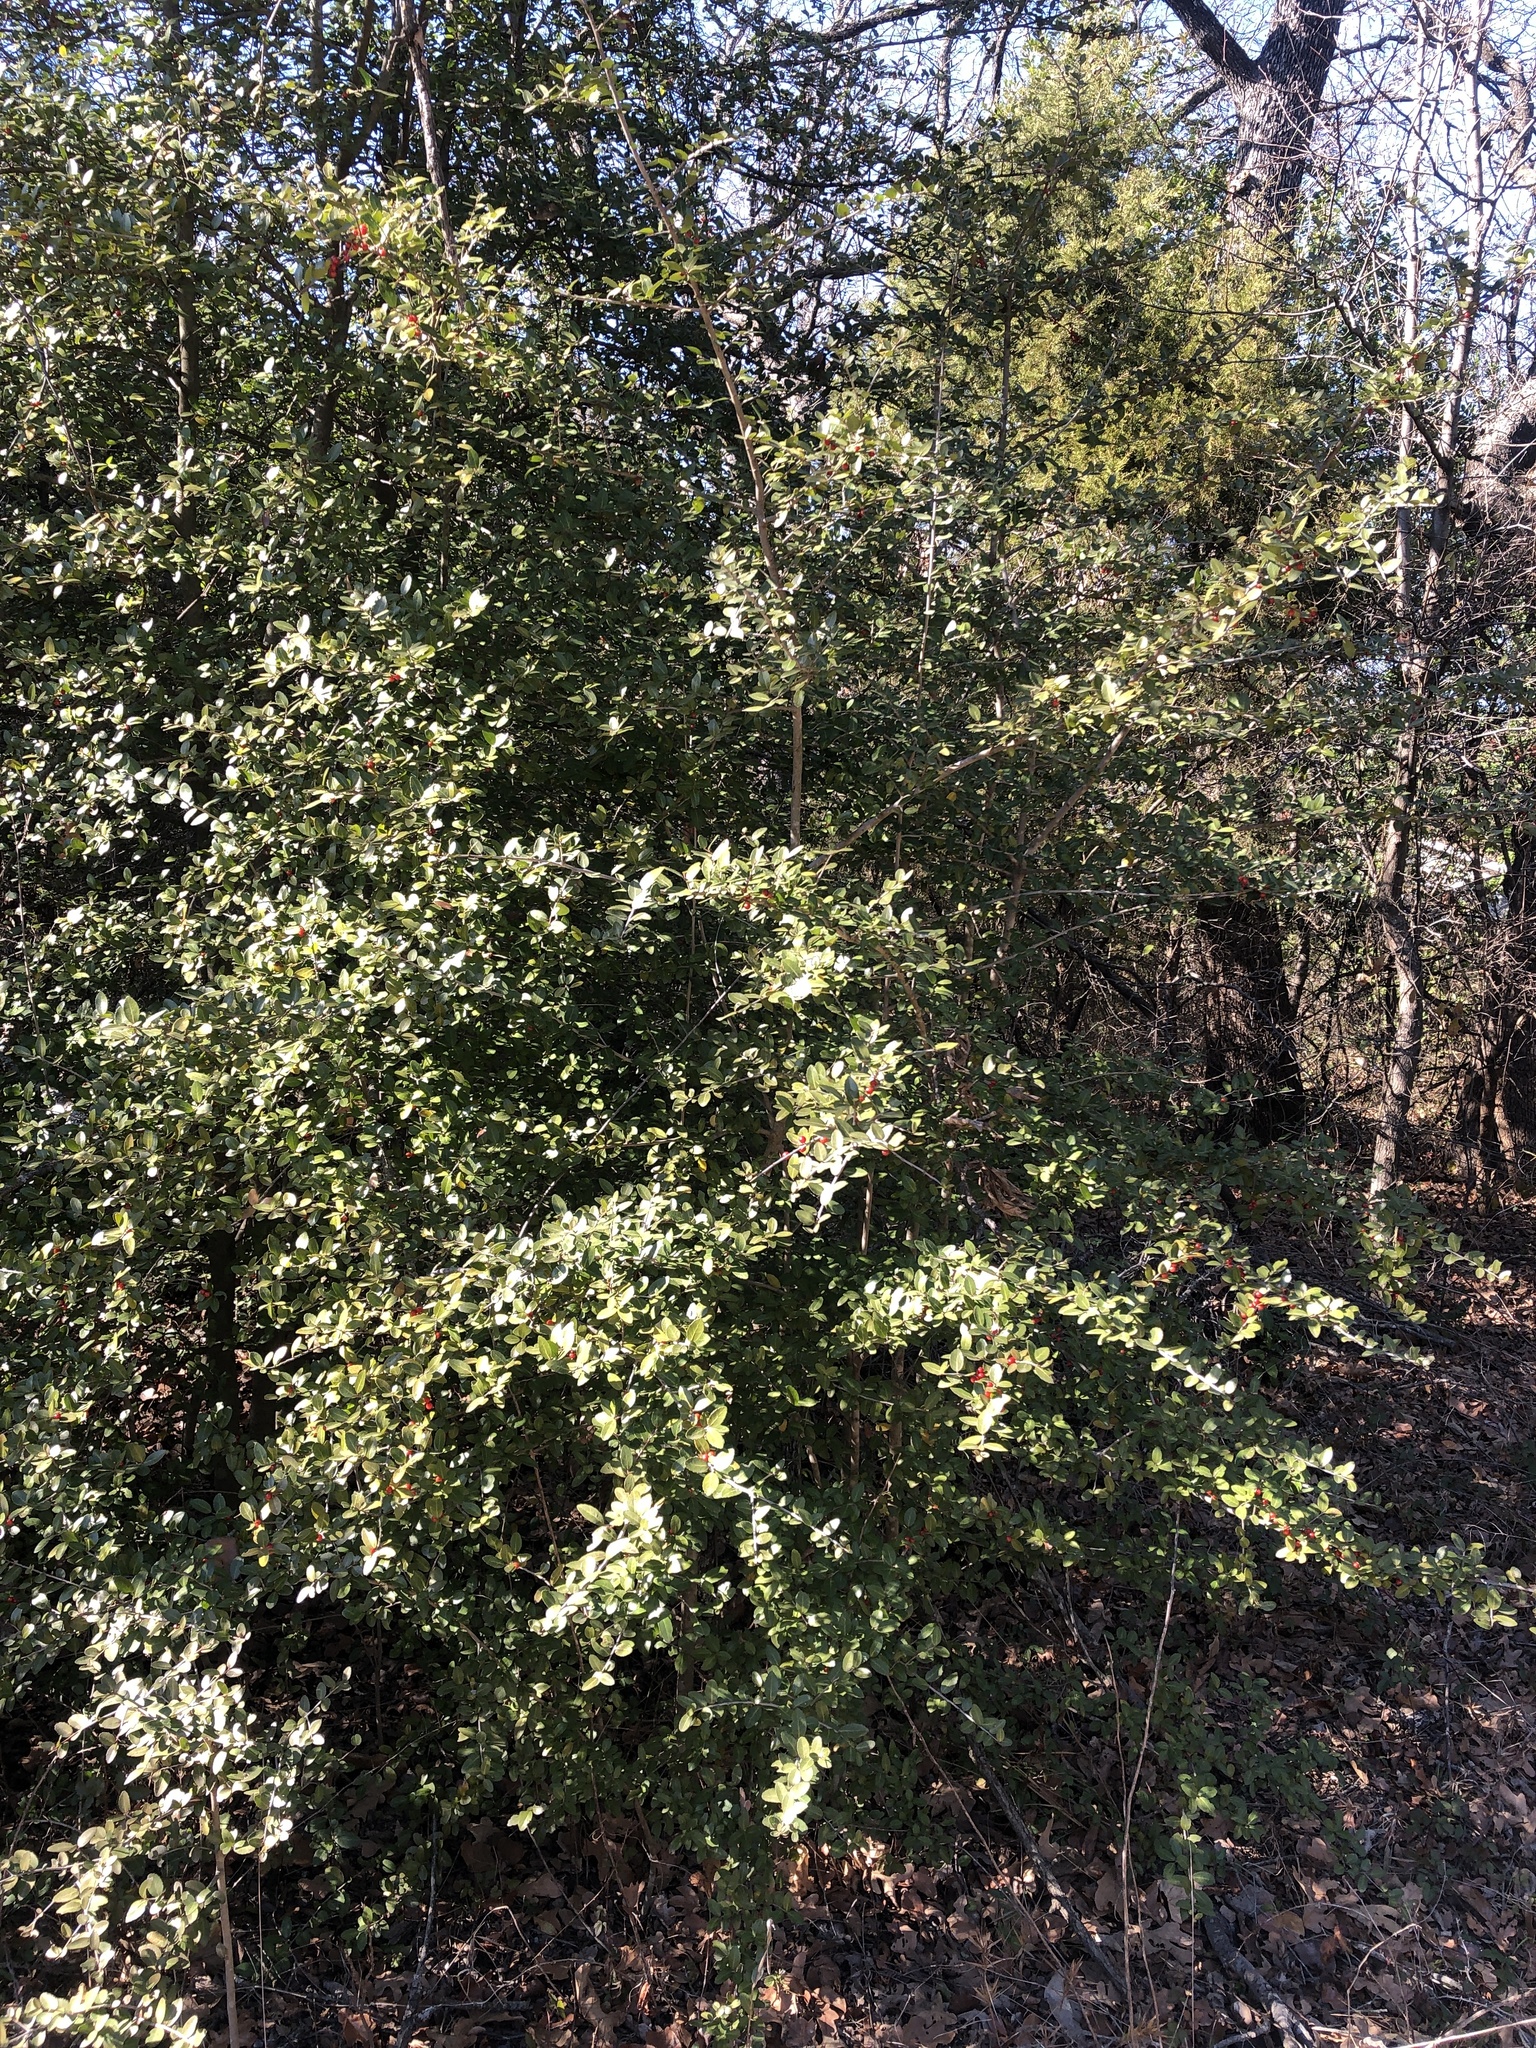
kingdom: Plantae
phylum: Tracheophyta
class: Magnoliopsida
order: Aquifoliales
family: Aquifoliaceae
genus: Ilex
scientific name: Ilex vomitoria
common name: Yaupon holly
